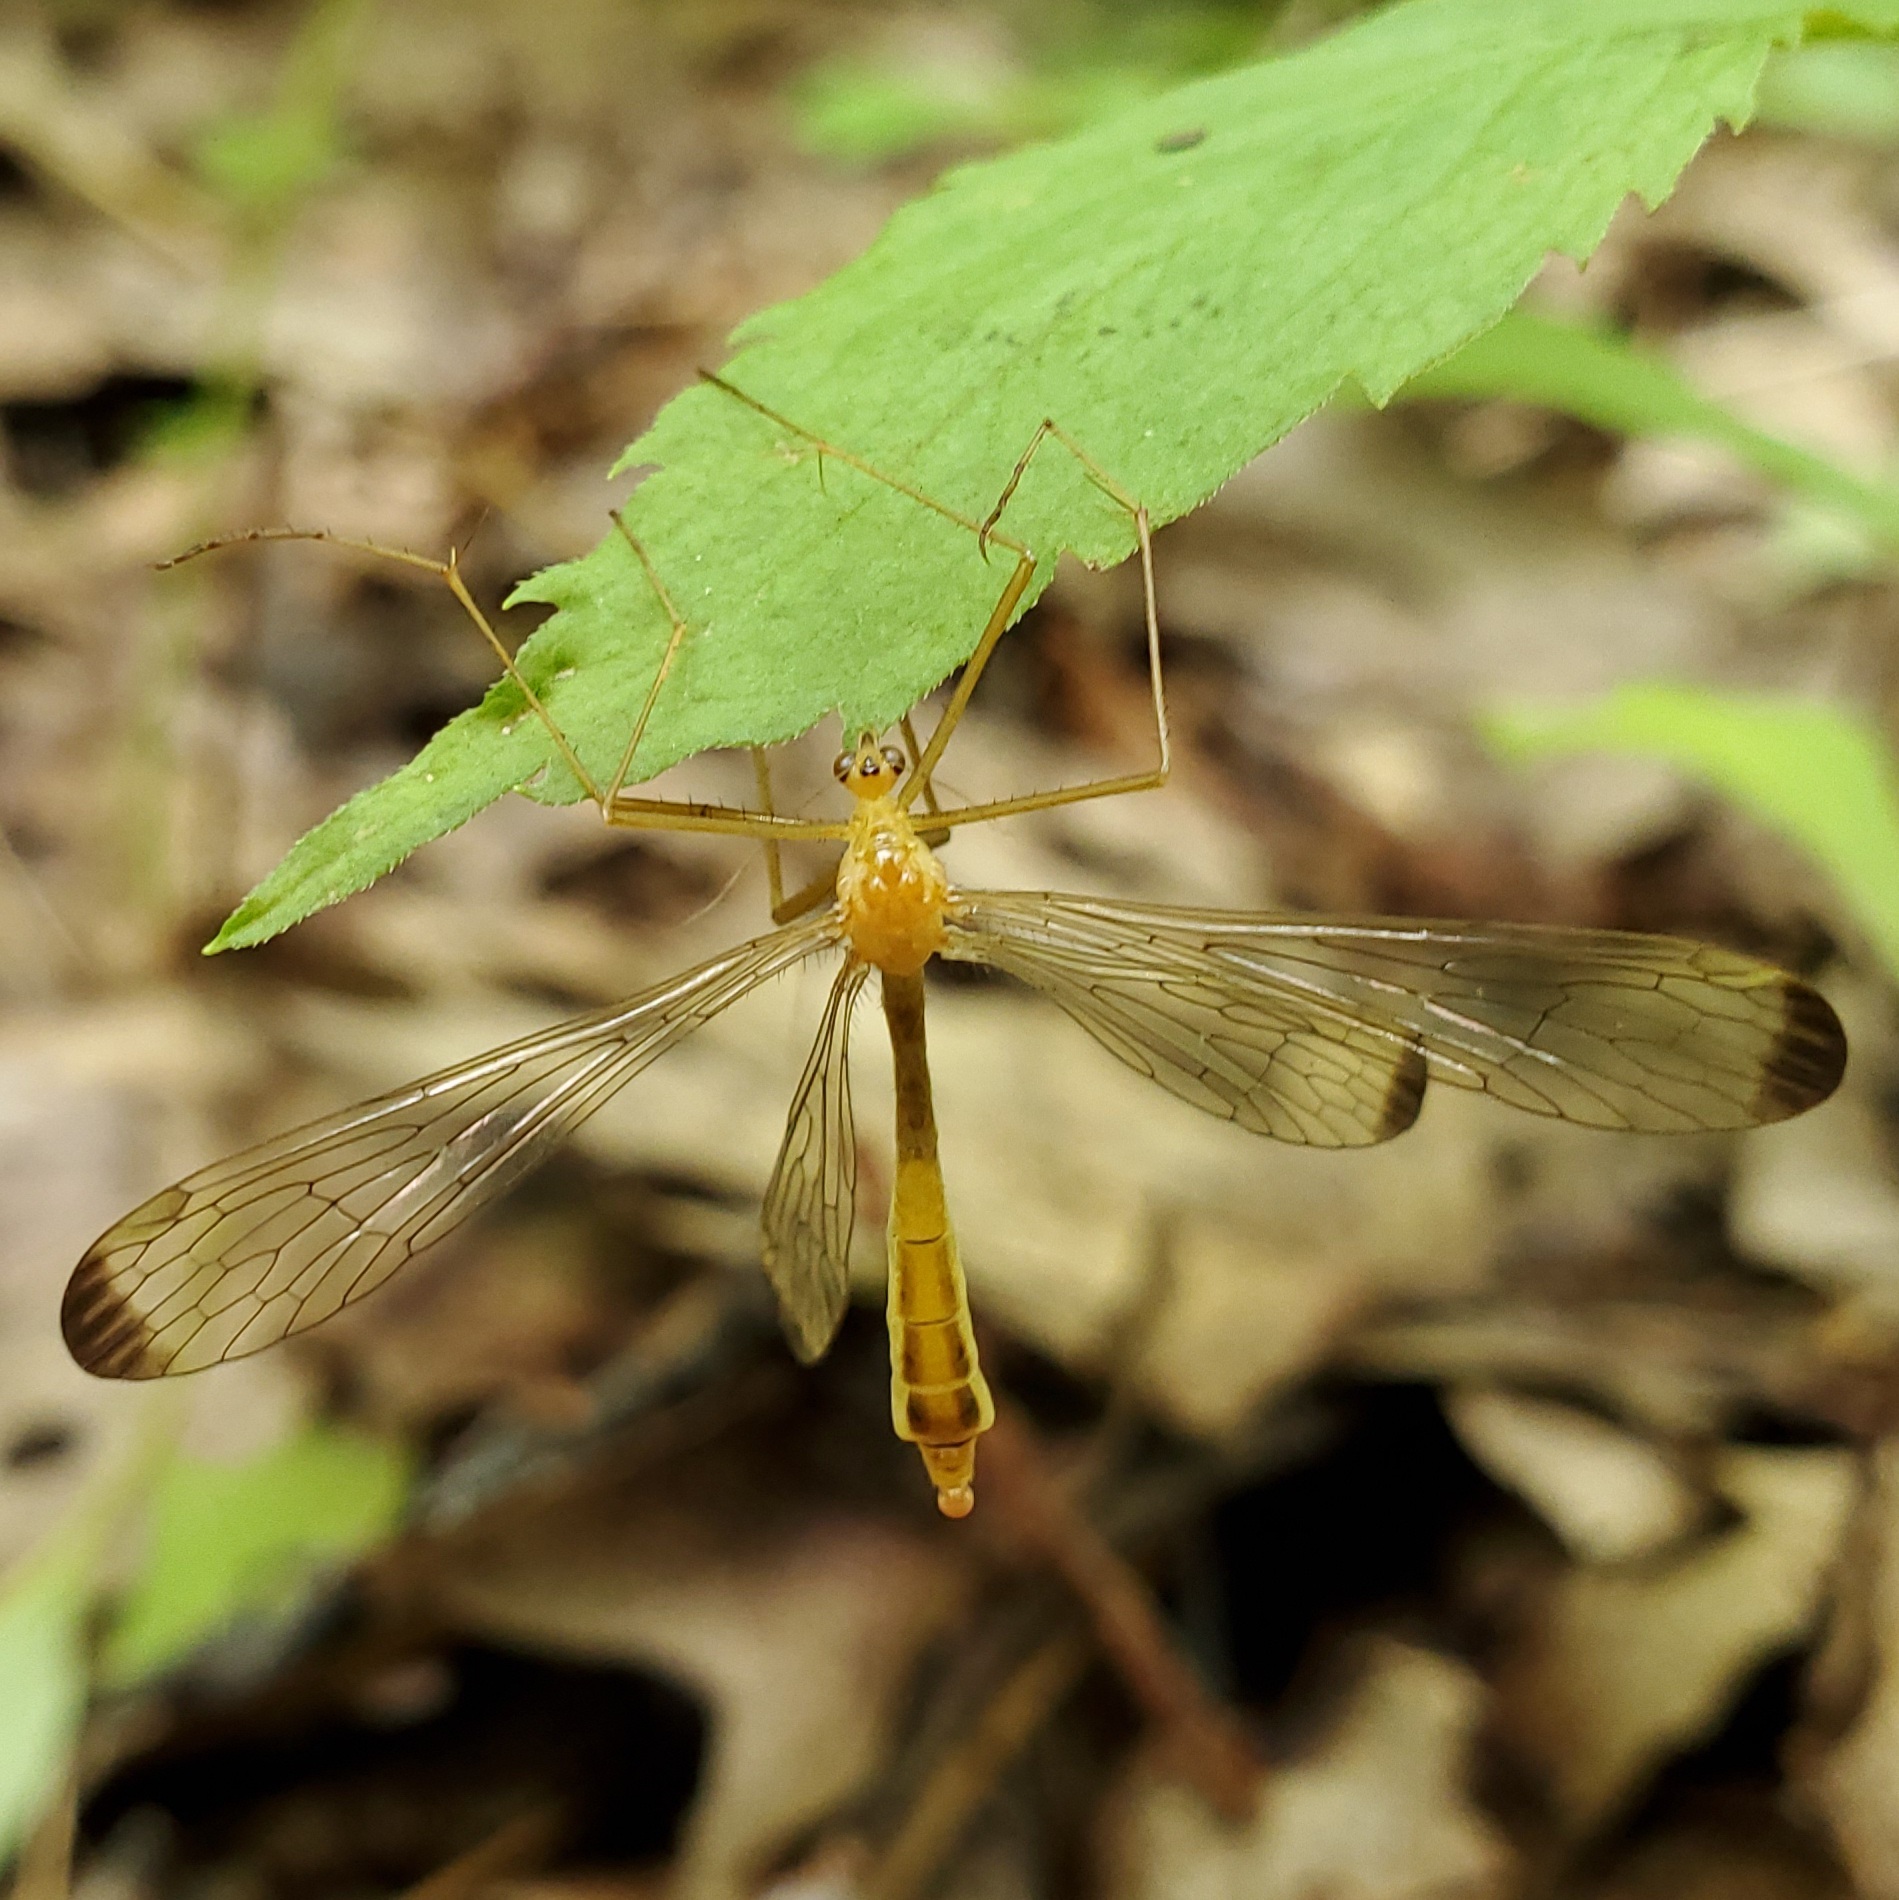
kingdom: Animalia
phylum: Arthropoda
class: Insecta
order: Mecoptera
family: Bittacidae
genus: Hylobittacus
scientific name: Hylobittacus apicalis
